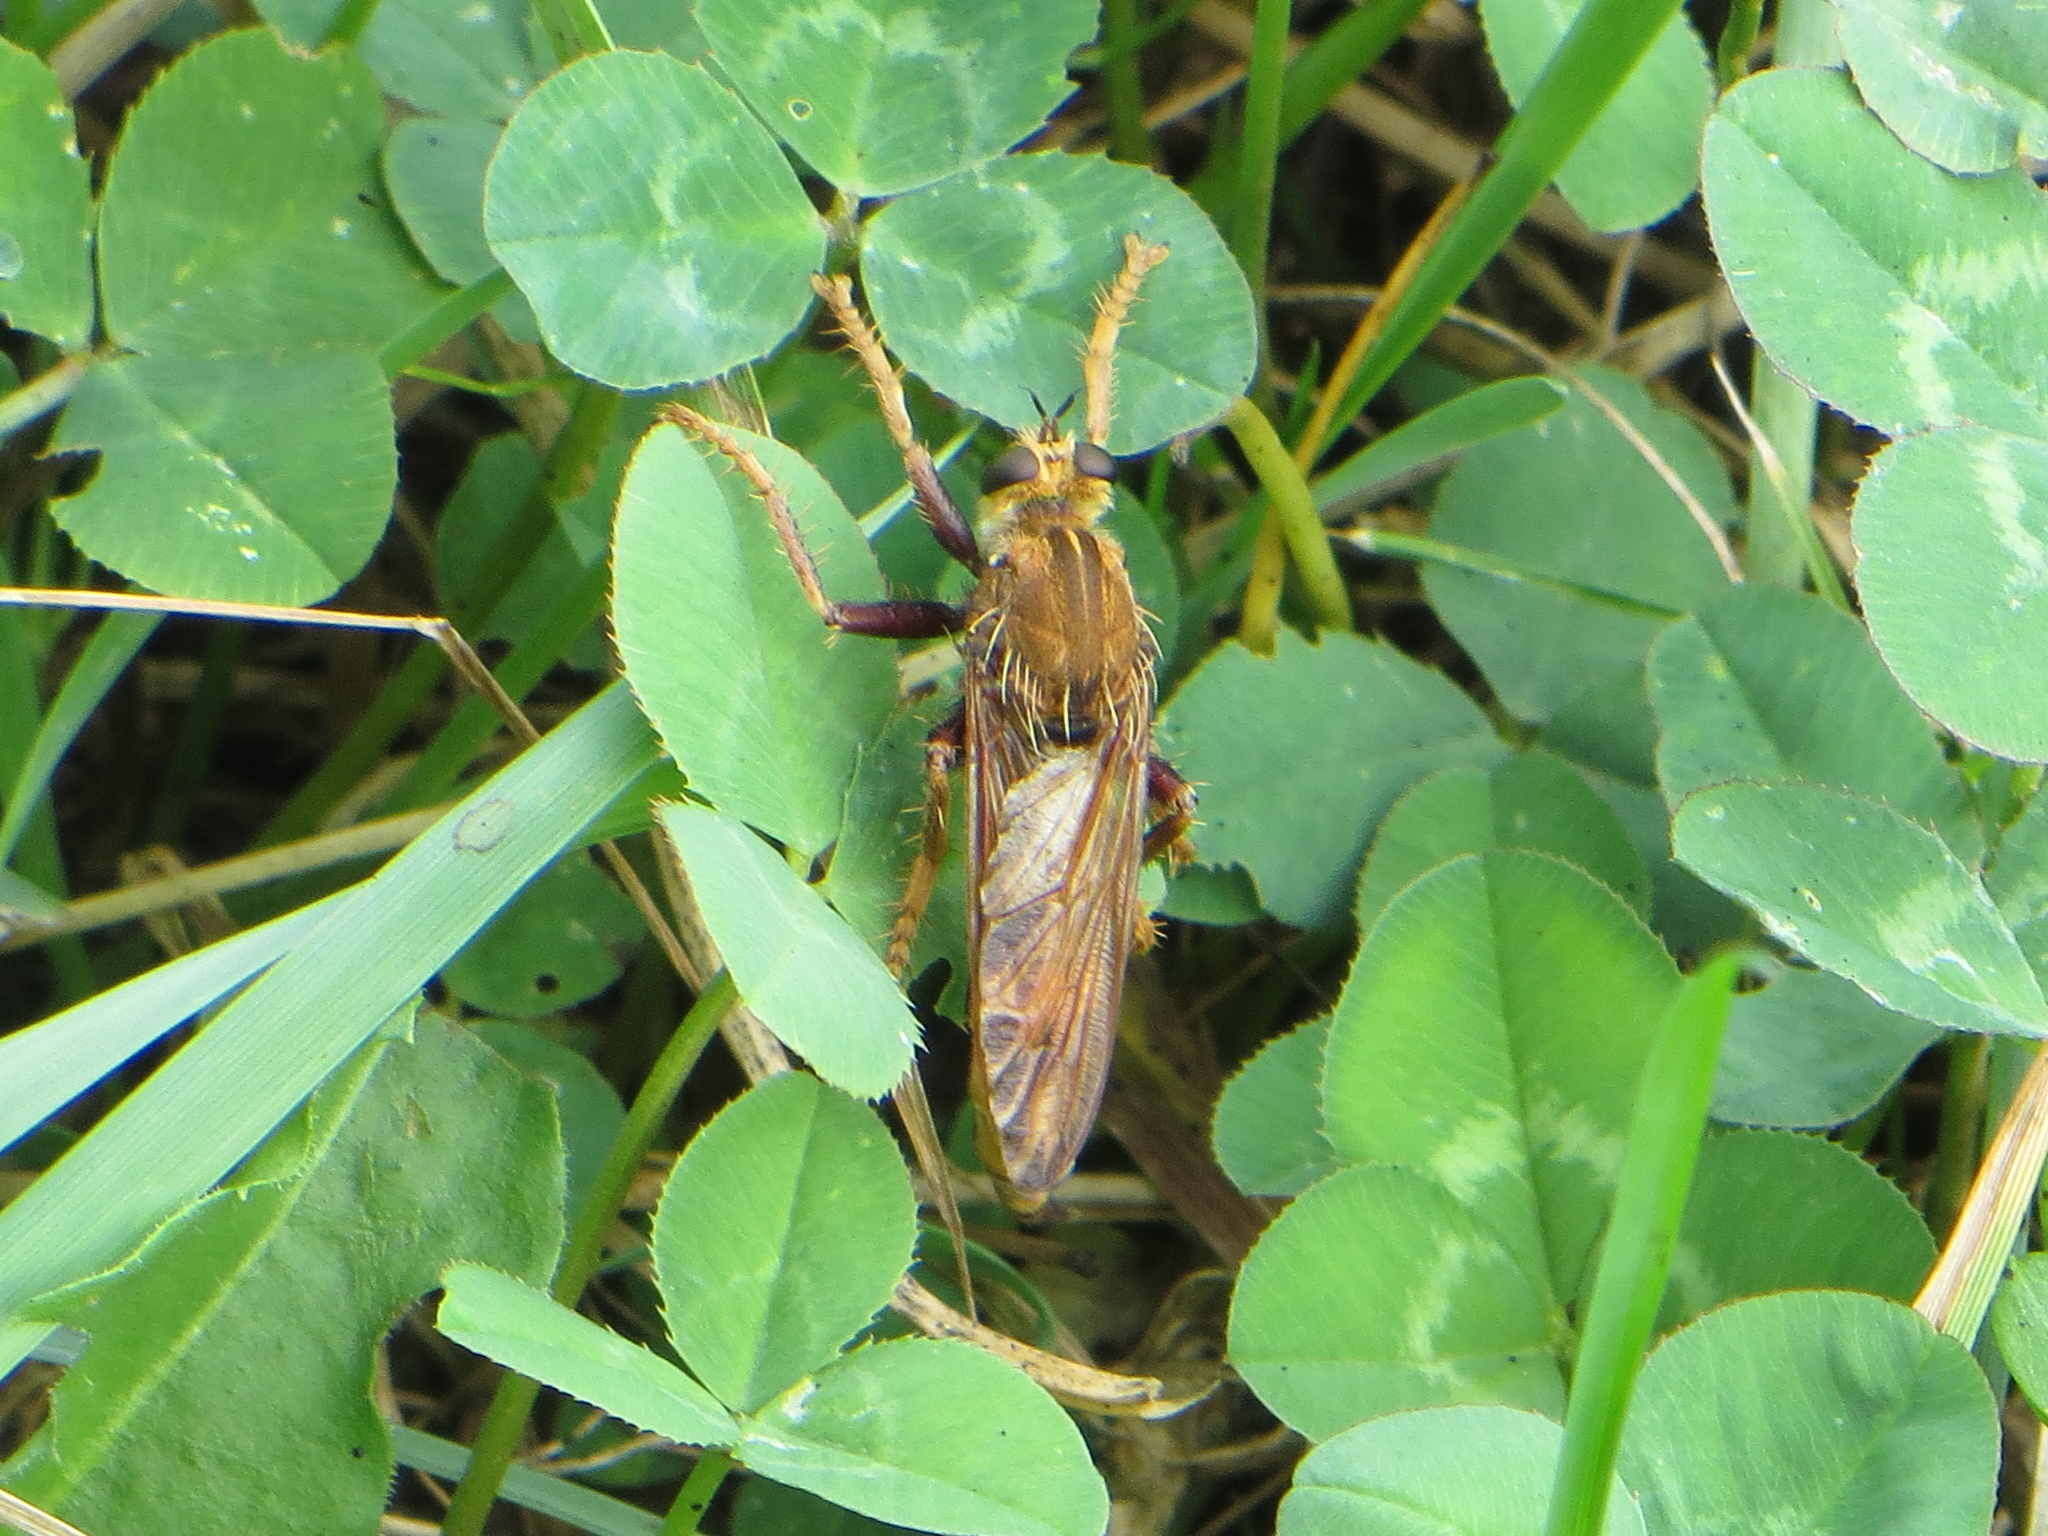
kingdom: Animalia
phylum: Arthropoda
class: Insecta
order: Diptera
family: Asilidae
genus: Asilus
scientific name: Asilus crabroniformis
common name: Hornet robberfly
